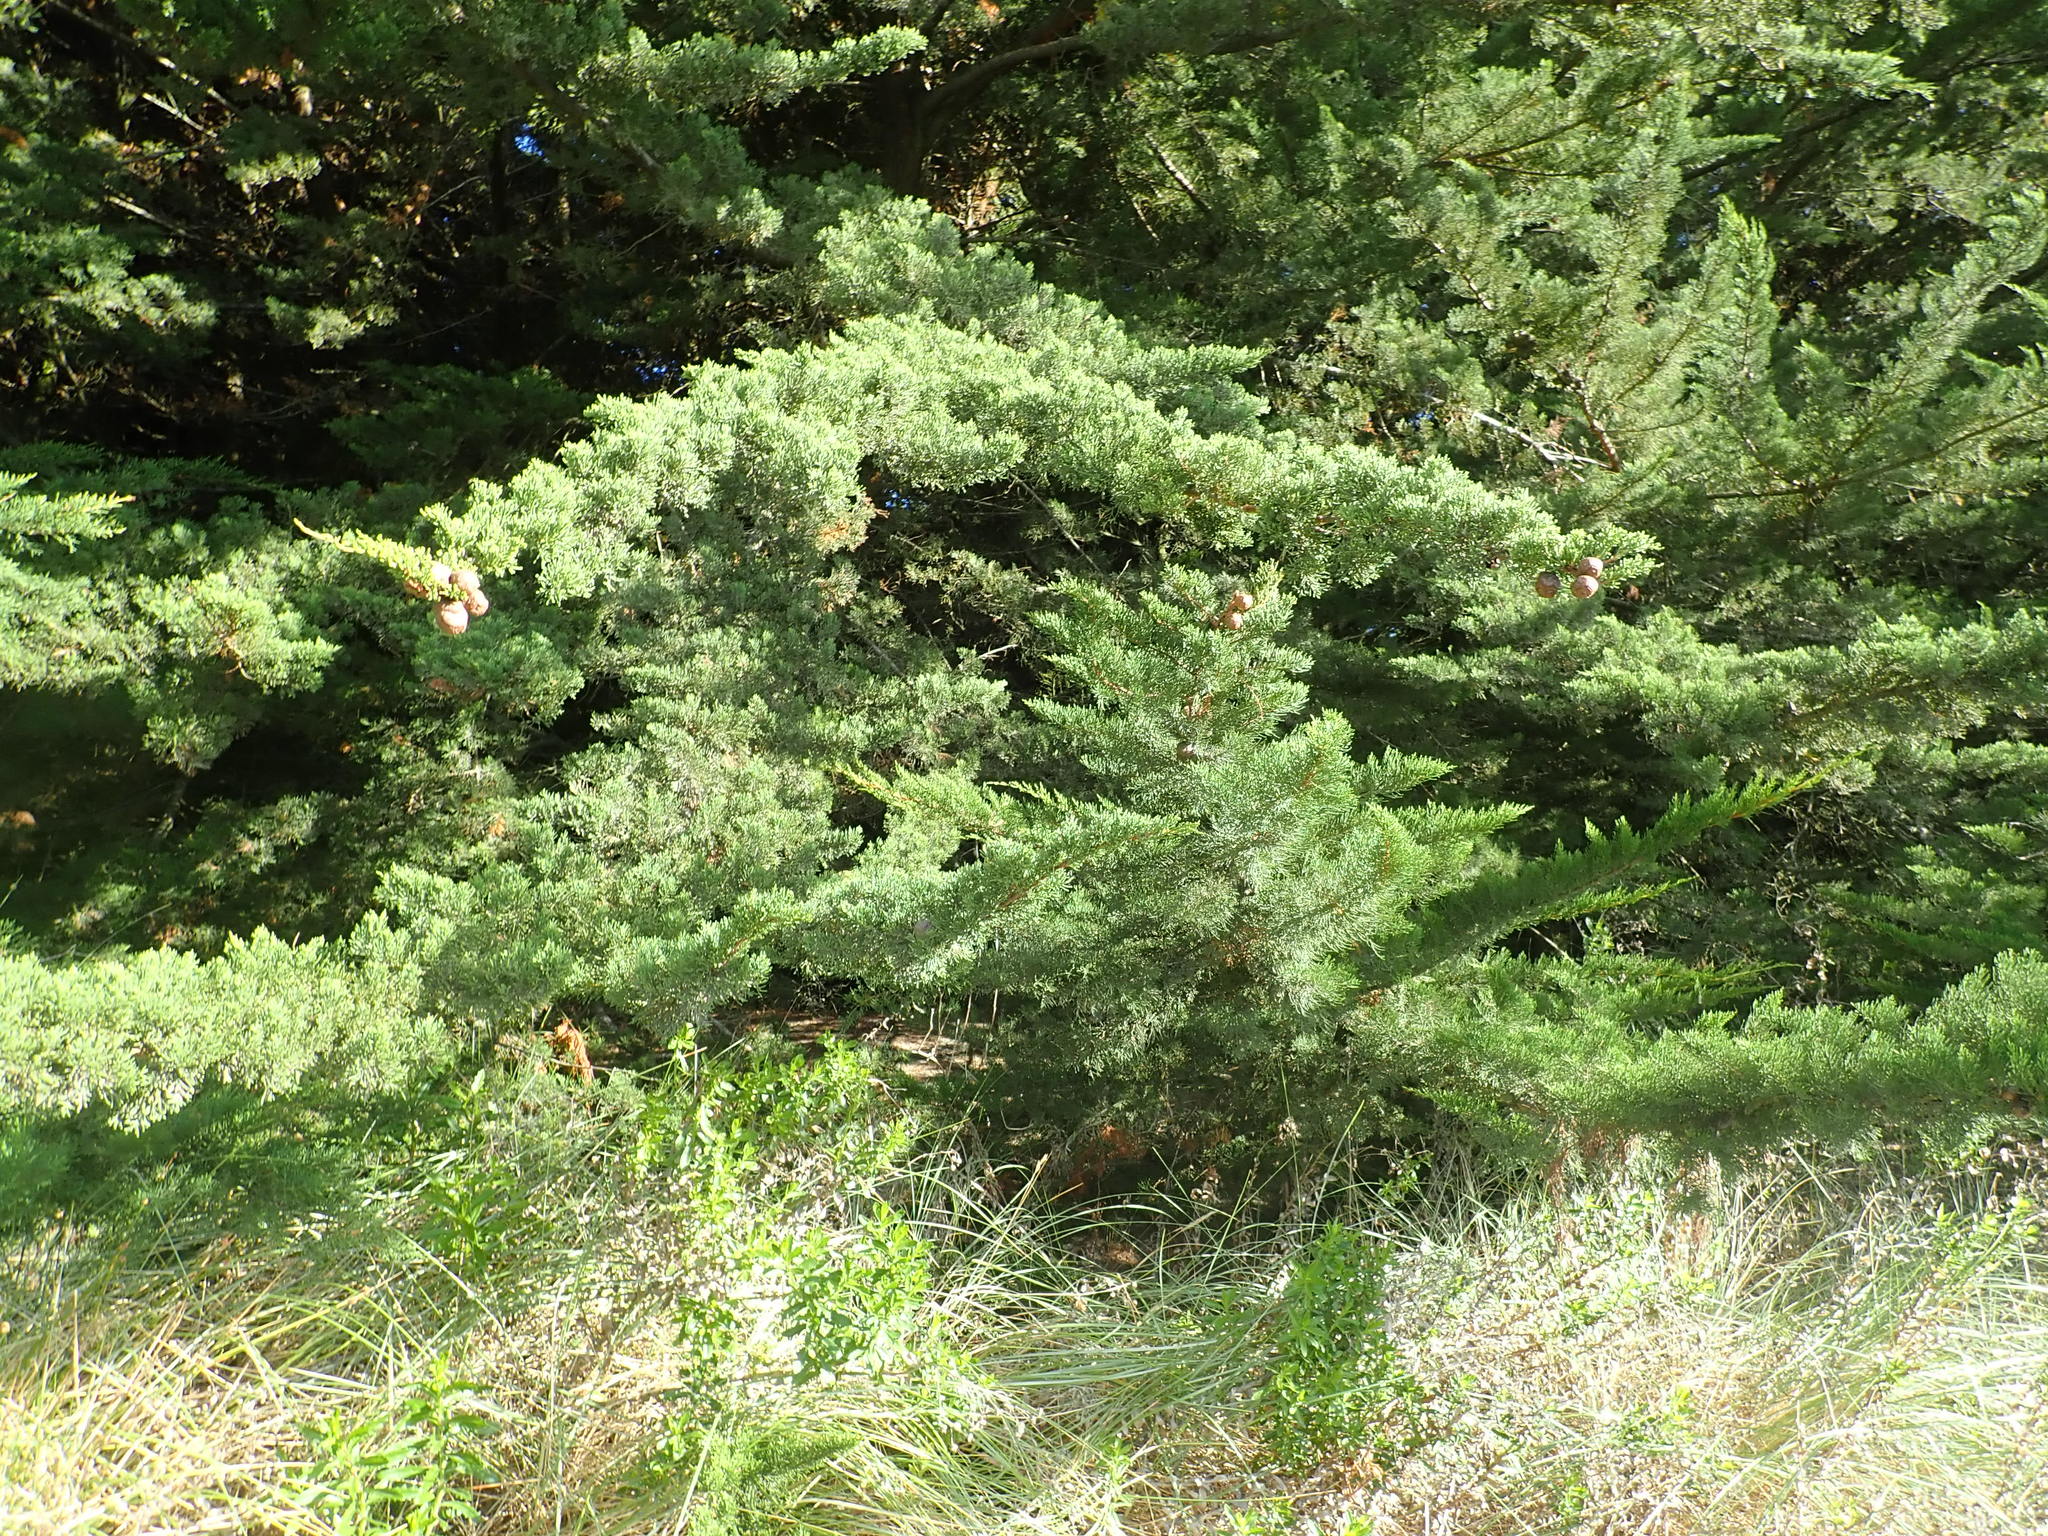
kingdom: Plantae
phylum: Tracheophyta
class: Pinopsida
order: Pinales
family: Cupressaceae
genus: Cupressus
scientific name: Cupressus macrocarpa
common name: Monterey cypress
